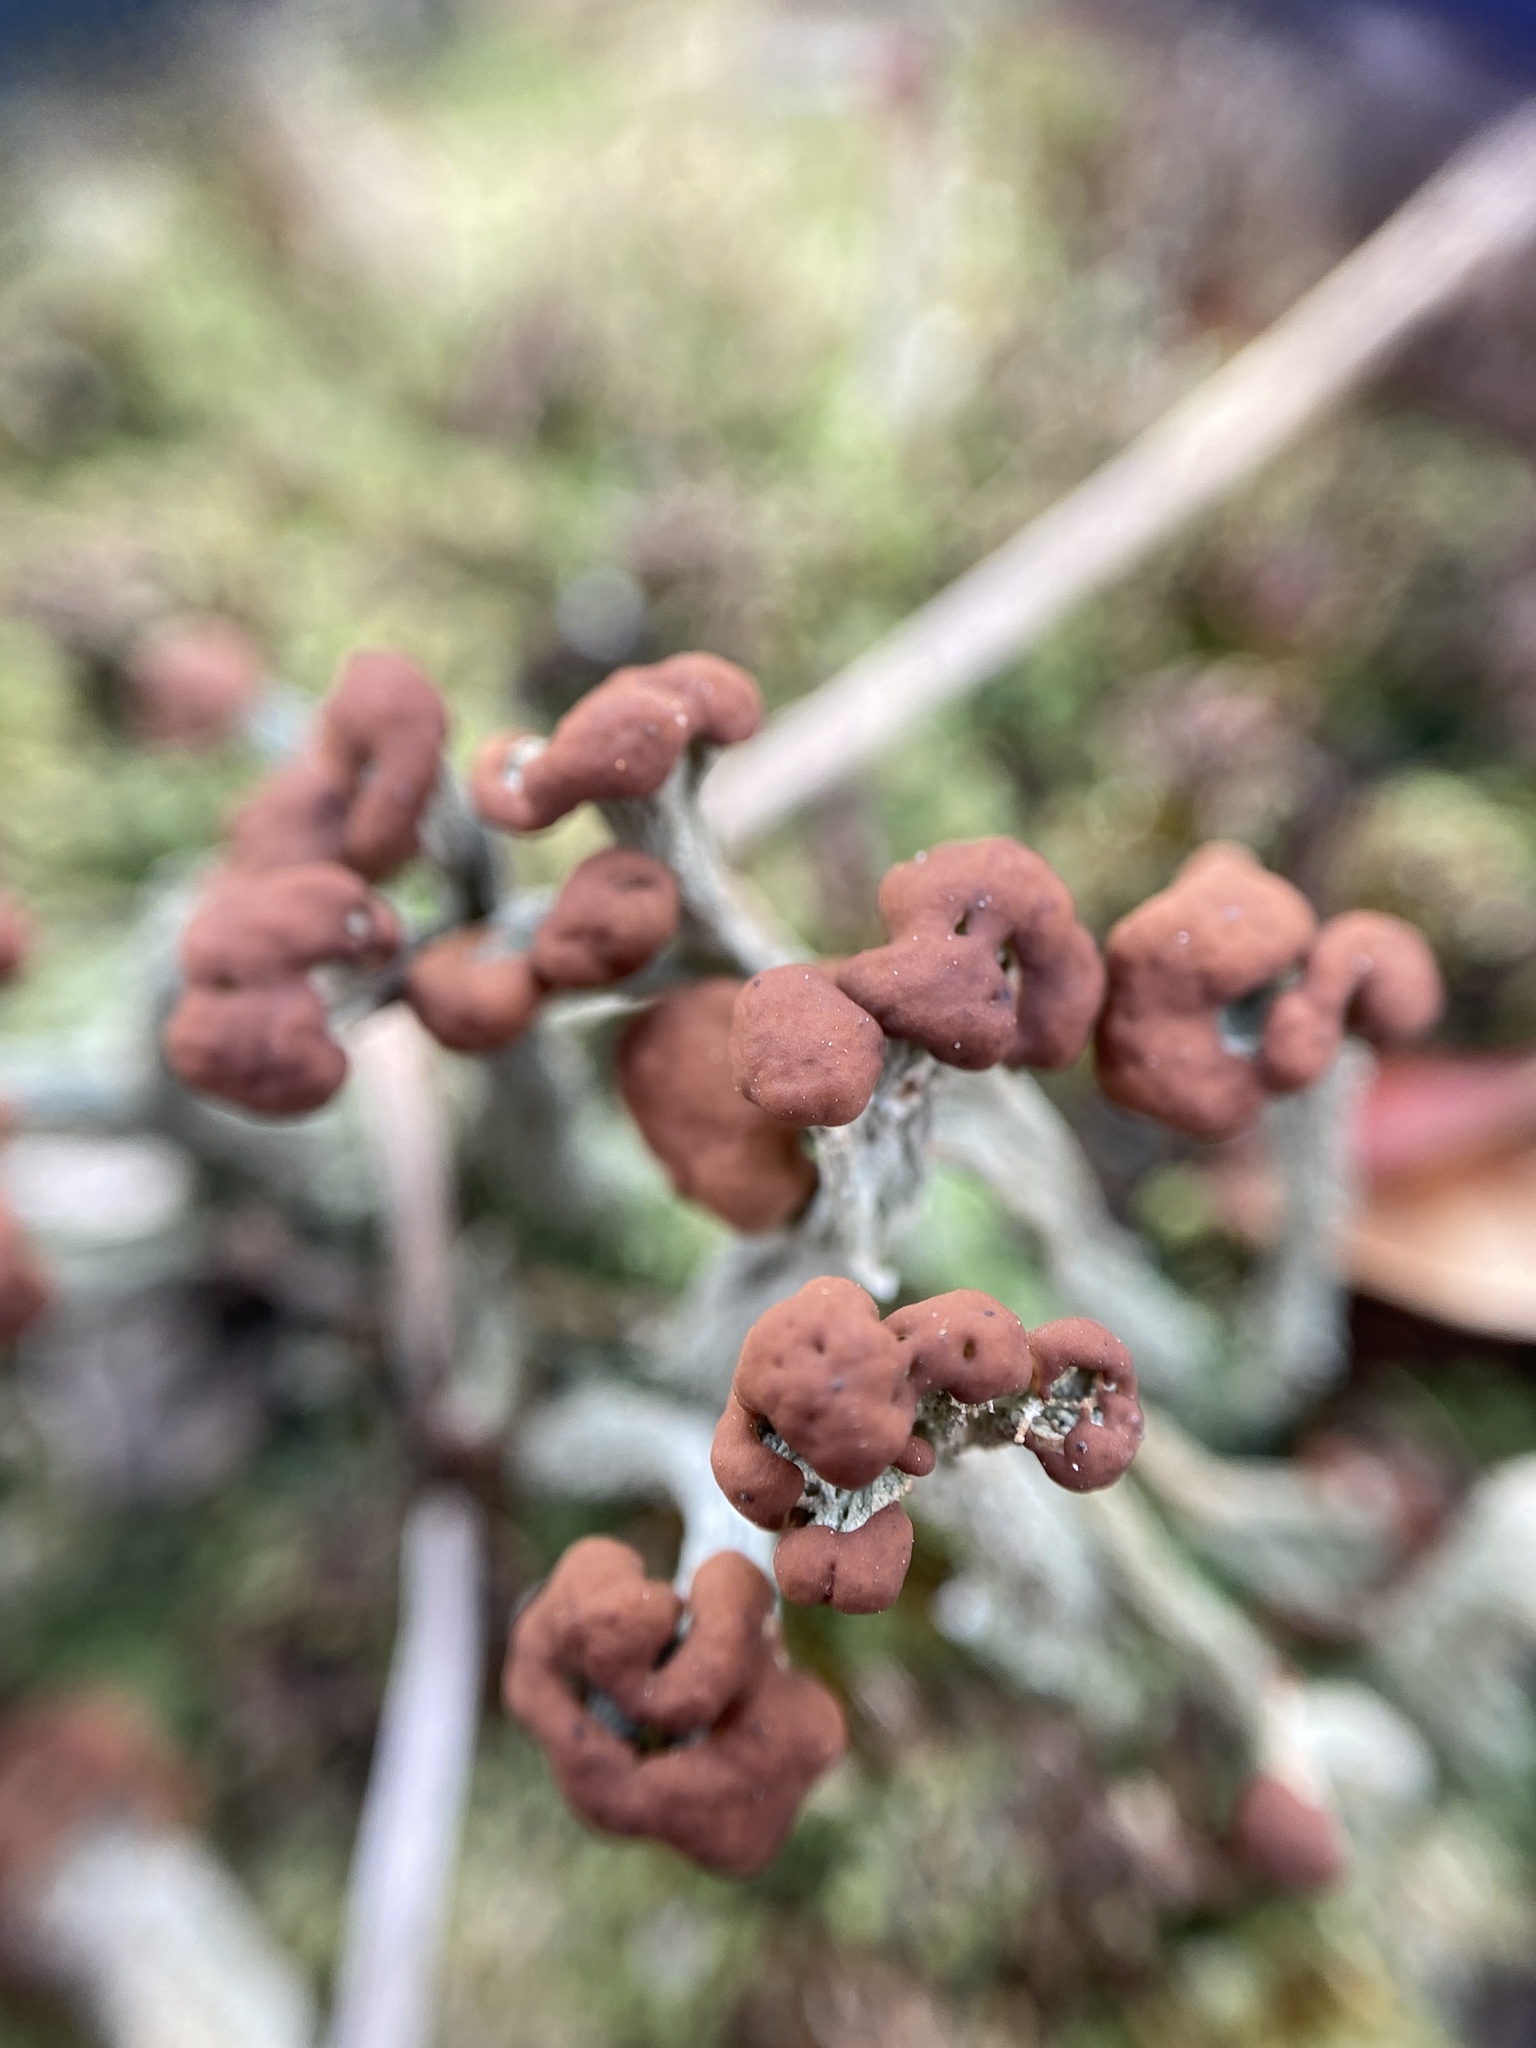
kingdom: Fungi
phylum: Ascomycota
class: Lecanoromycetes
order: Lecanorales
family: Cladoniaceae
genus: Cladonia
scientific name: Cladonia peziziformis
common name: Cup lichen
